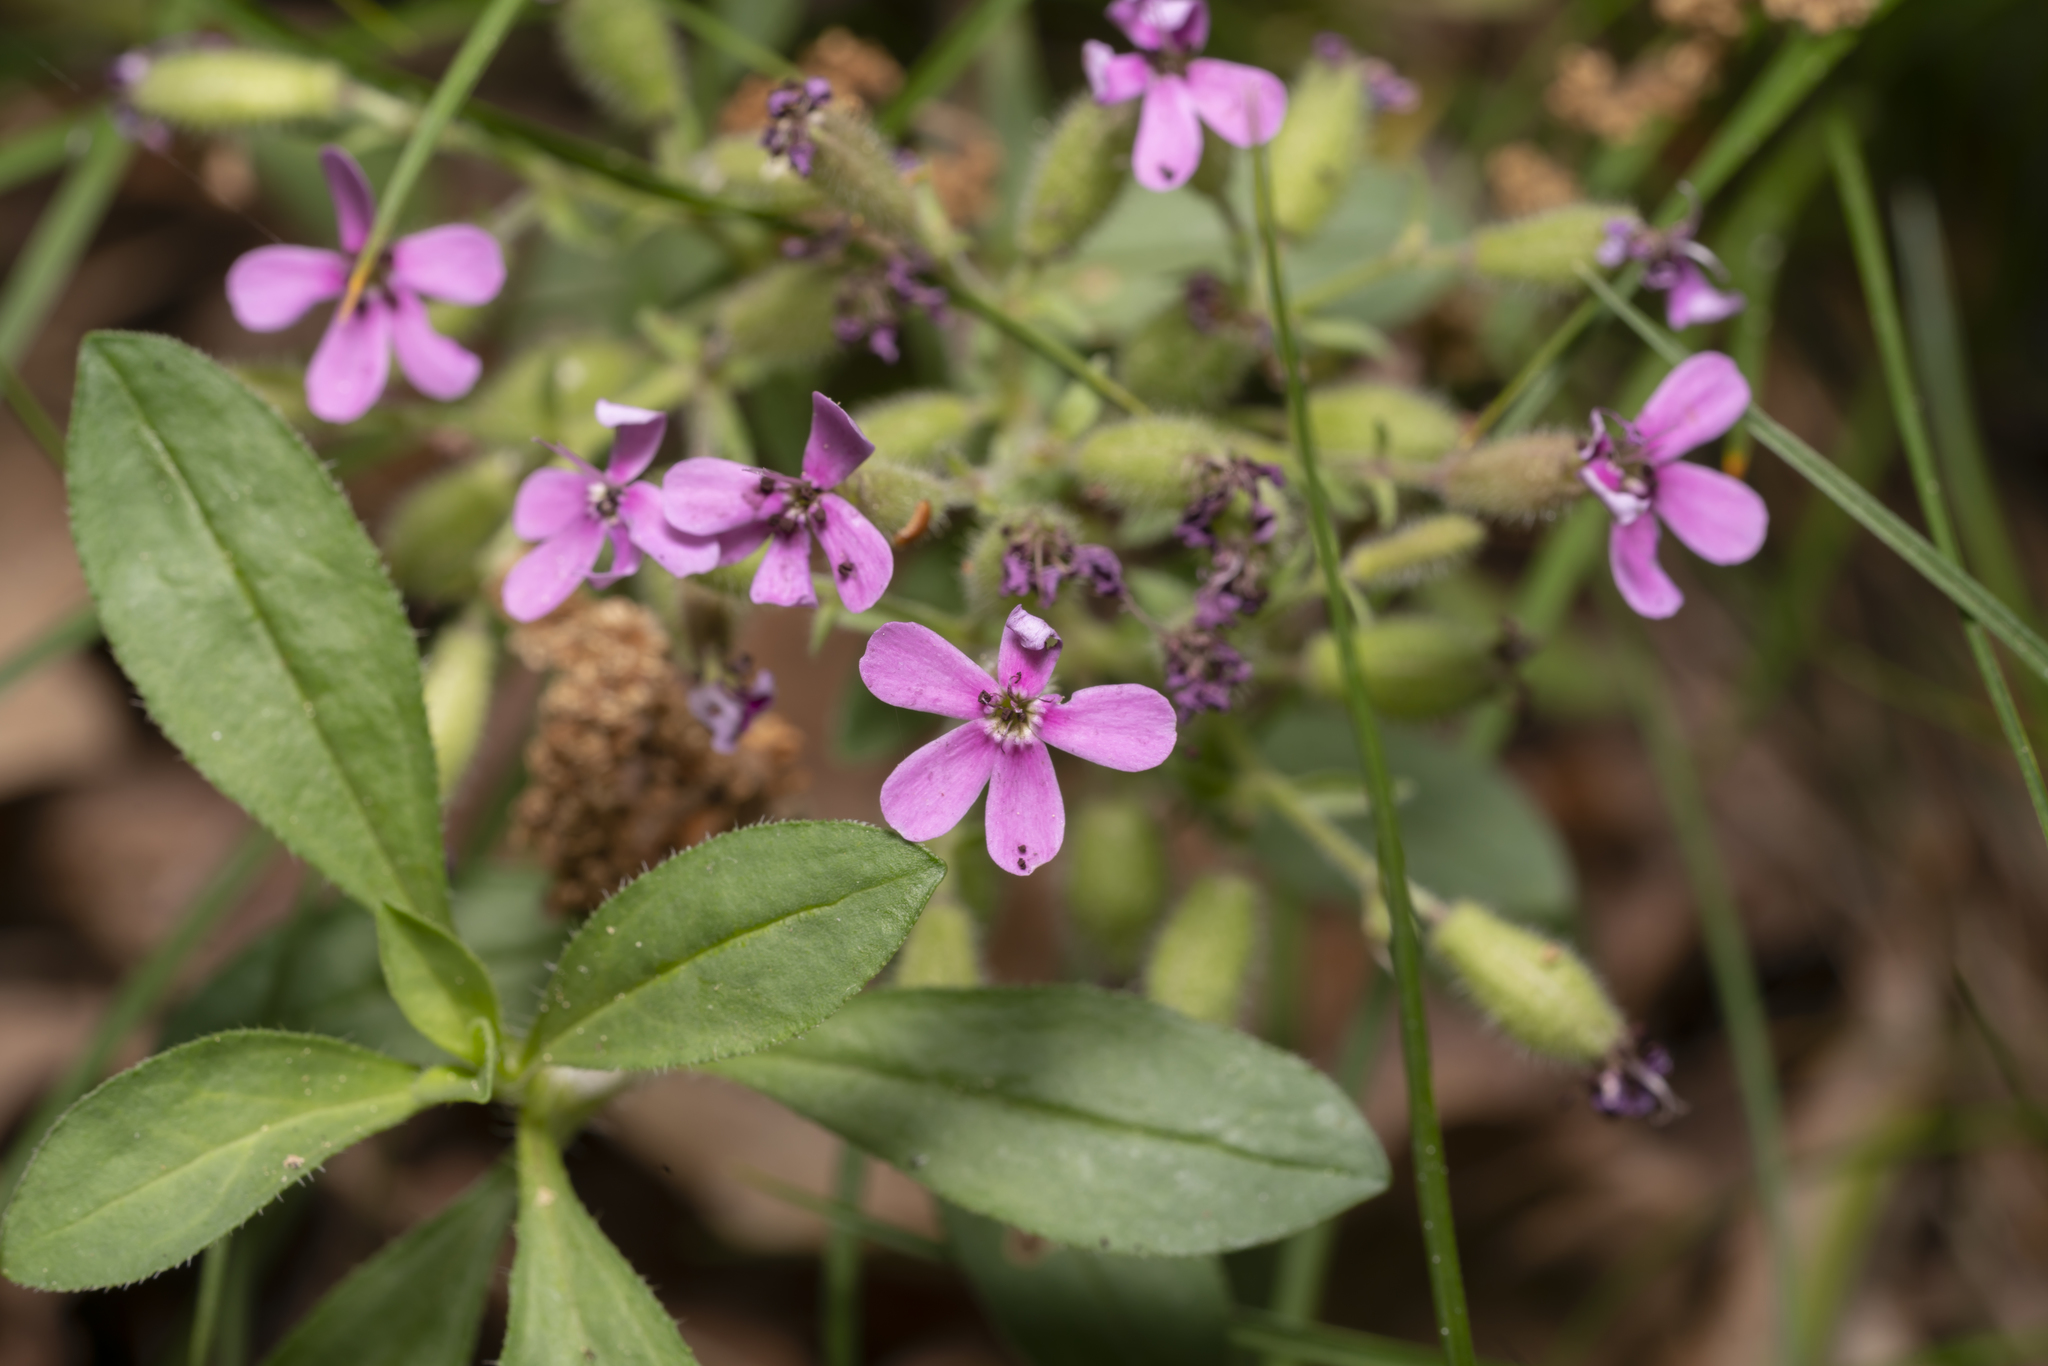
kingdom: Plantae
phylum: Tracheophyta
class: Magnoliopsida
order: Caryophyllales
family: Caryophyllaceae
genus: Saponaria
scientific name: Saponaria ocymoides
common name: Rock soapwort
